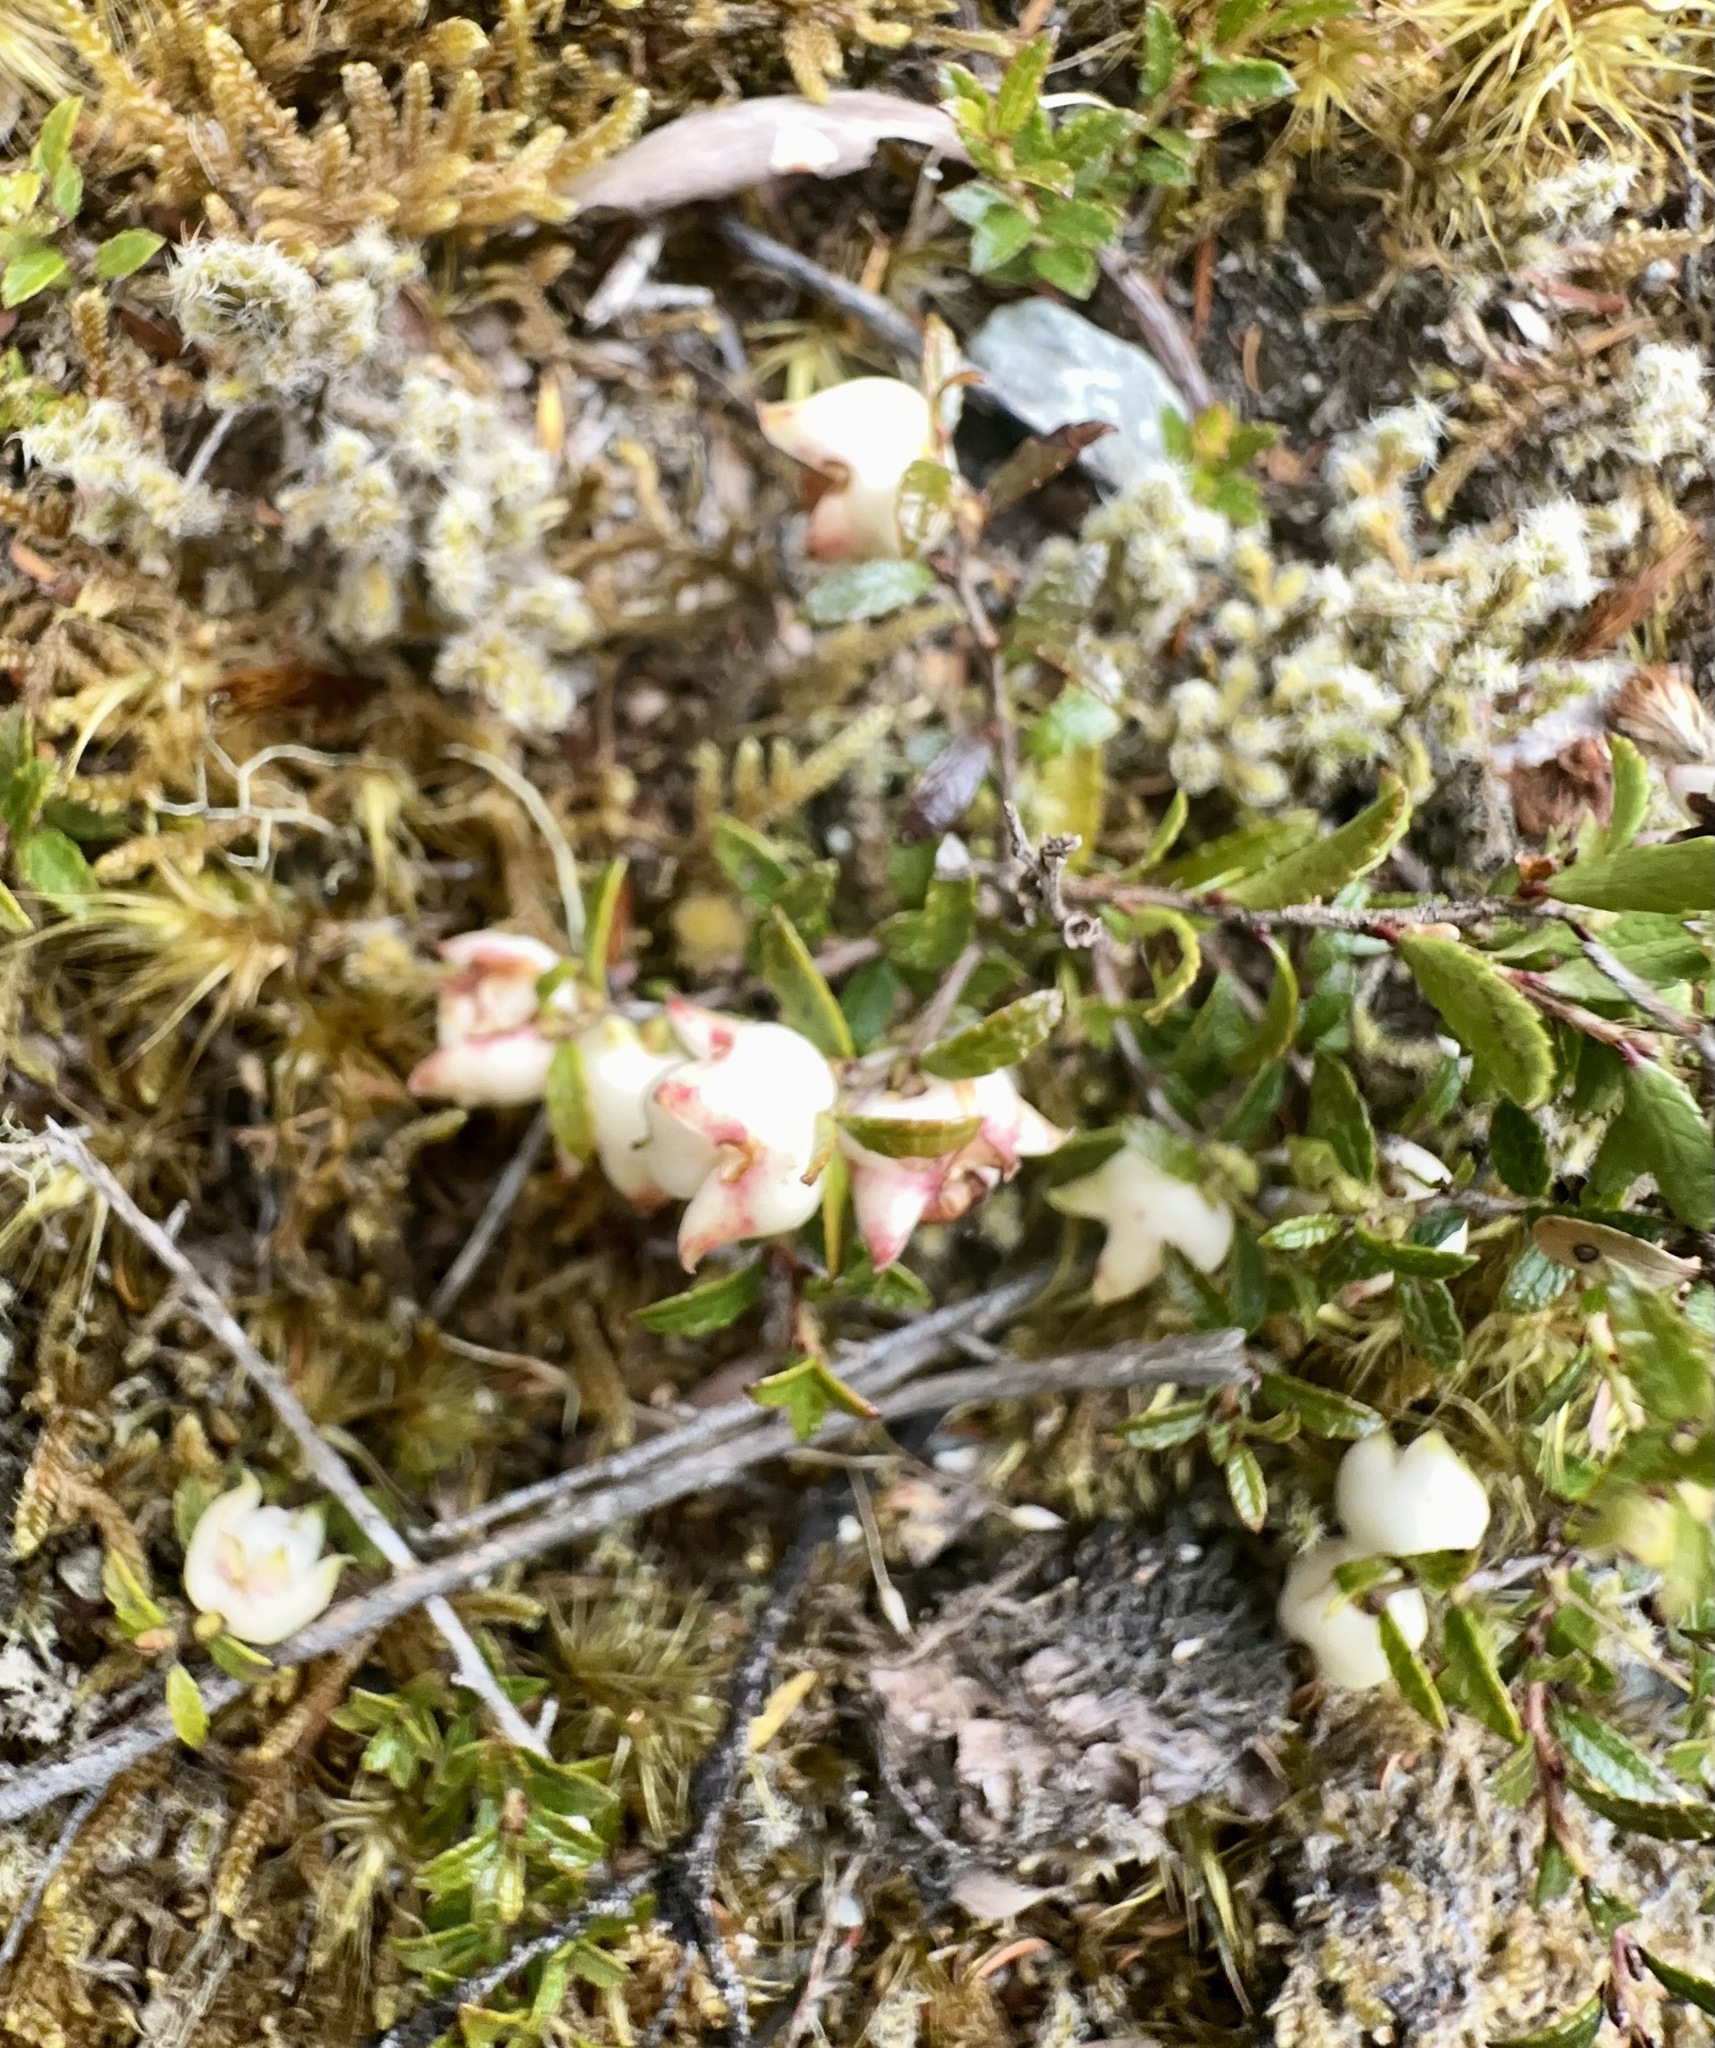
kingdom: Plantae
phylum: Tracheophyta
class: Magnoliopsida
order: Ericales
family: Ericaceae
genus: Gaultheria
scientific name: Gaultheria
